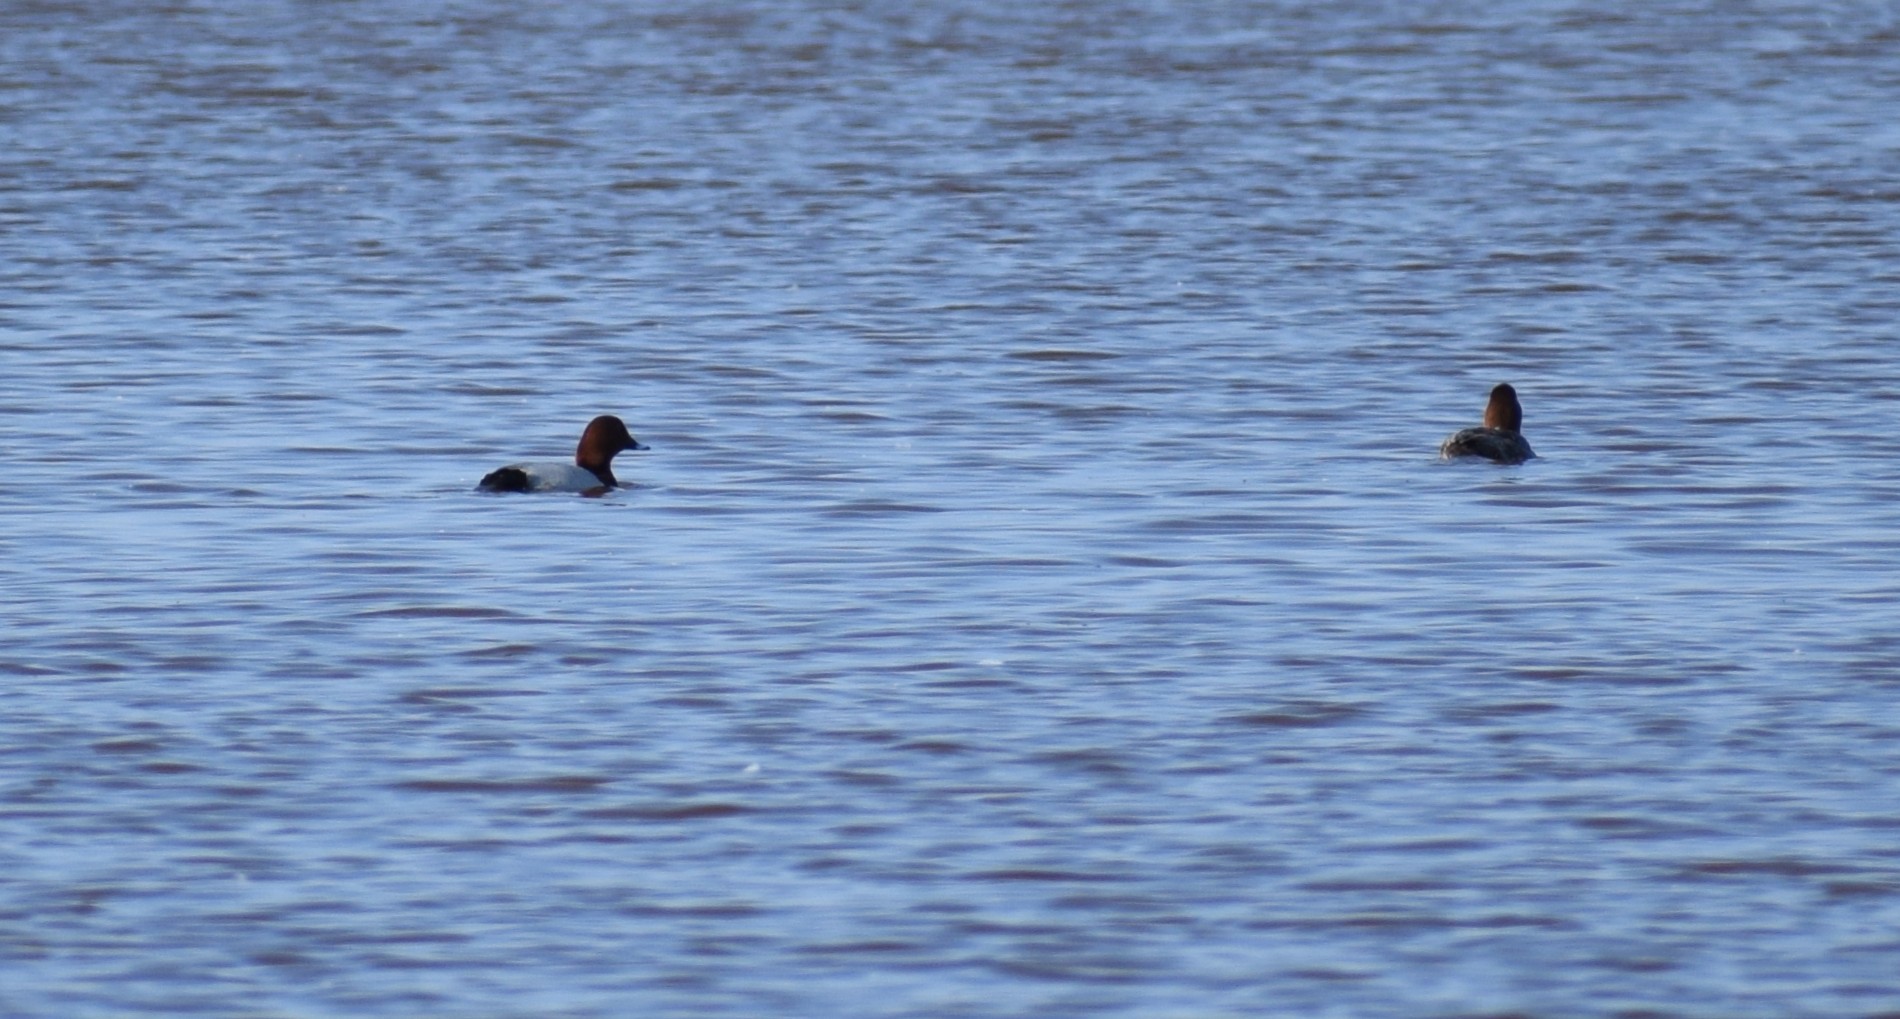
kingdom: Animalia
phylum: Chordata
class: Aves
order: Anseriformes
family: Anatidae
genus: Aythya
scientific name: Aythya ferina
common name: Common pochard
